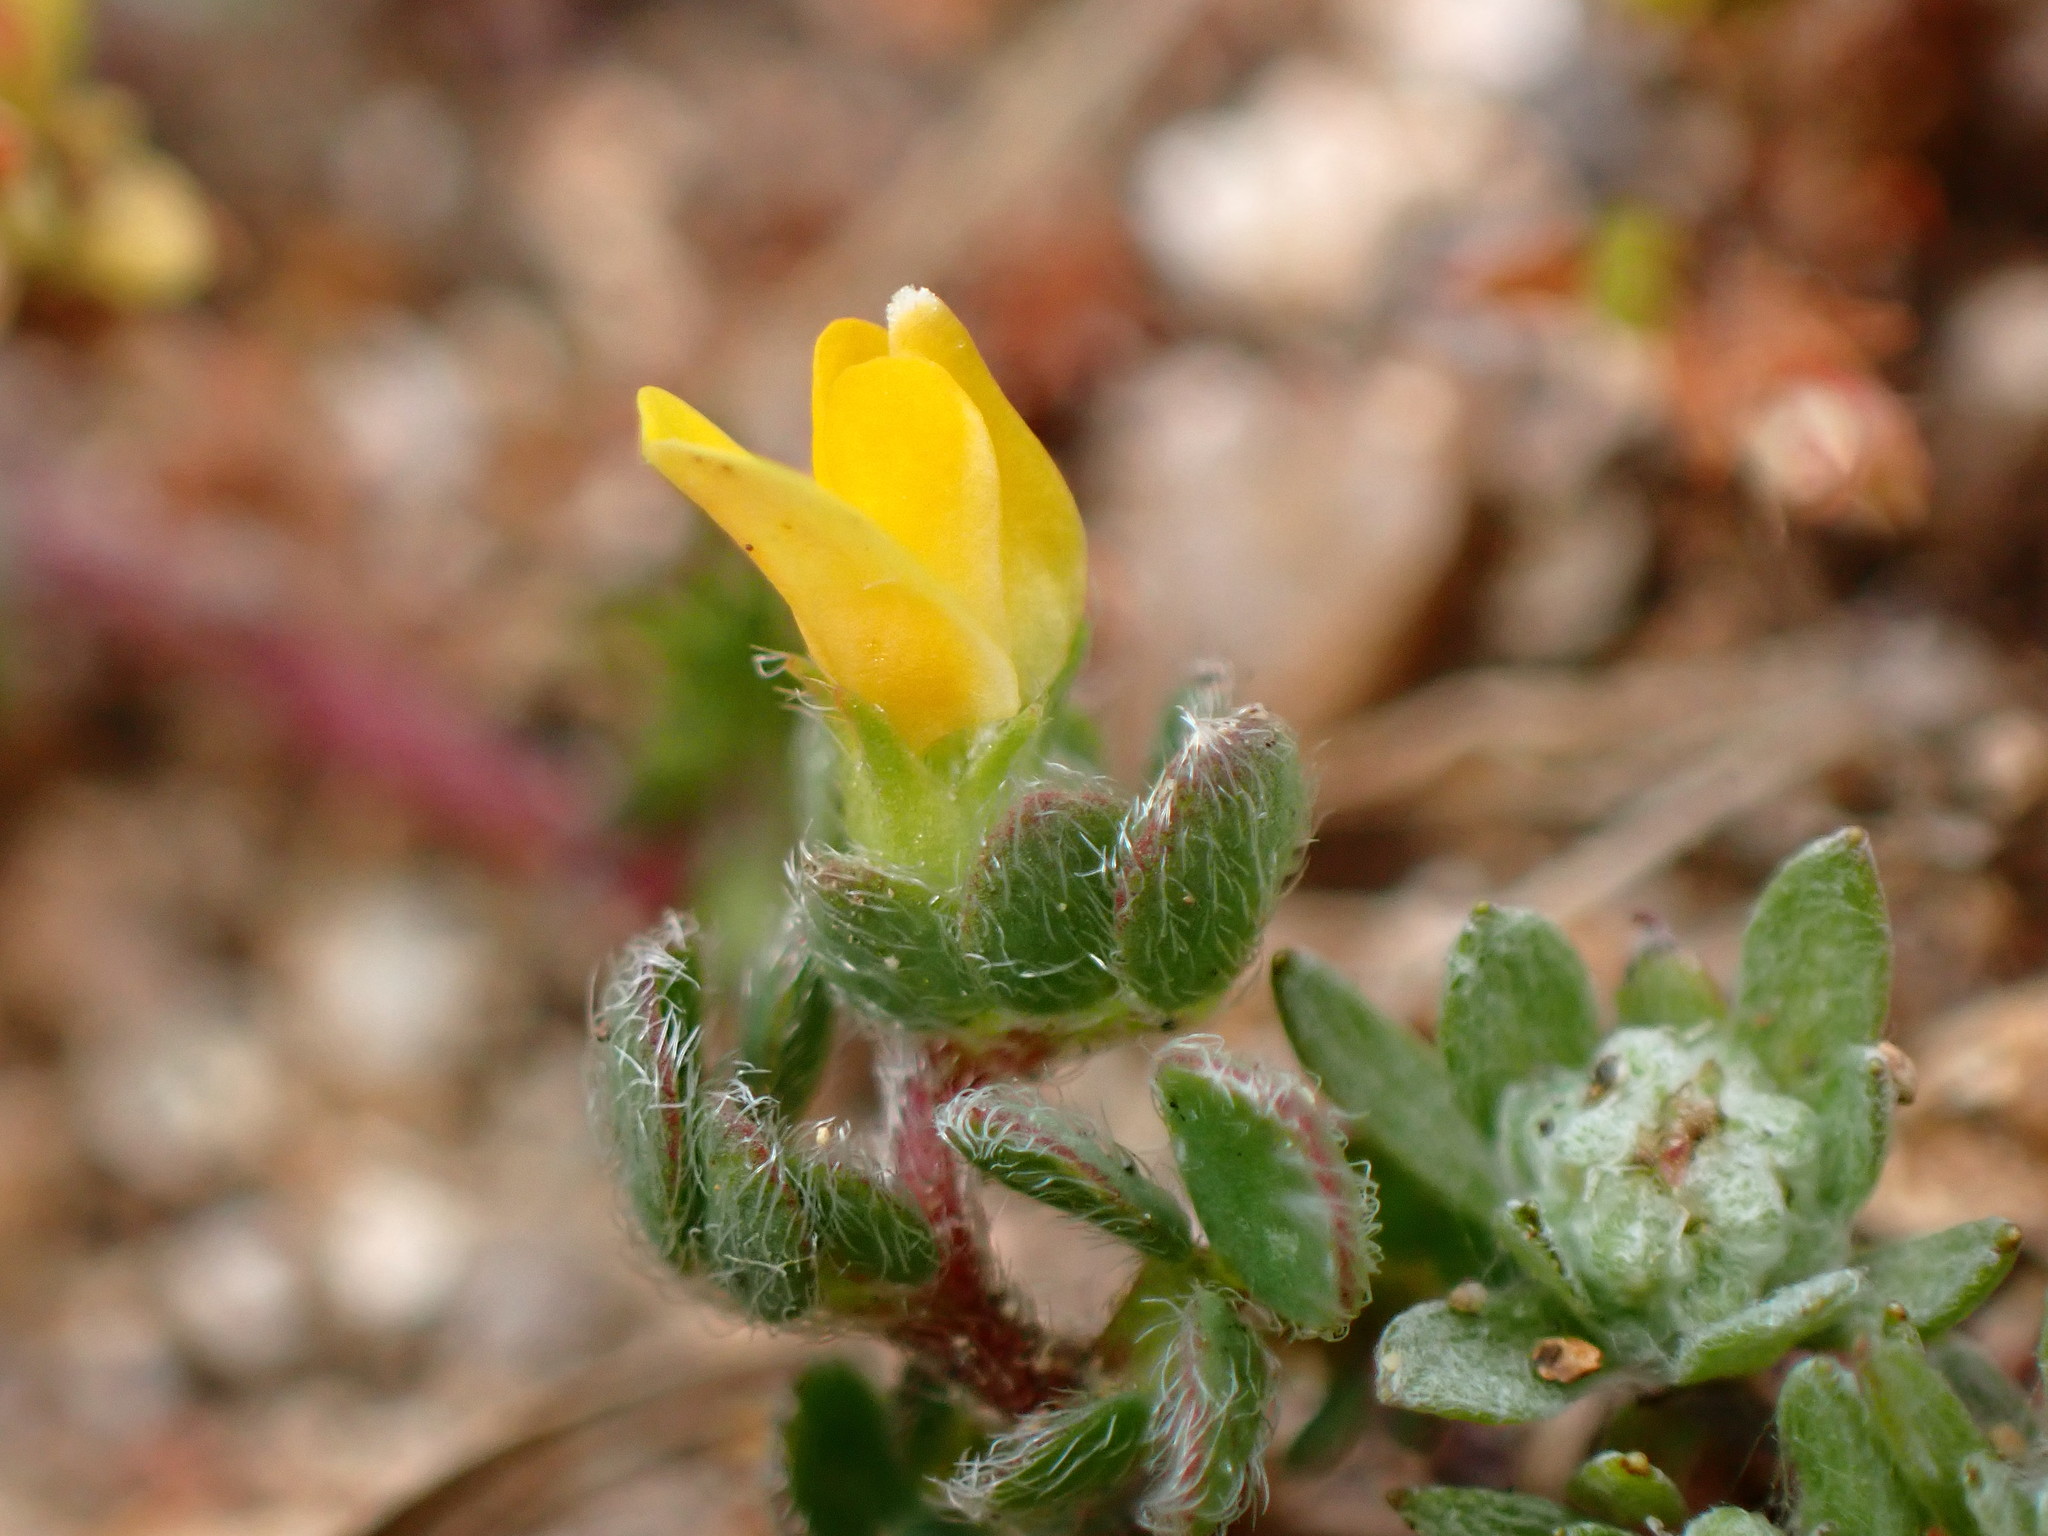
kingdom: Plantae
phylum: Tracheophyta
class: Magnoliopsida
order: Fabales
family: Fabaceae
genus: Acmispon
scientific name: Acmispon wrangelianus
